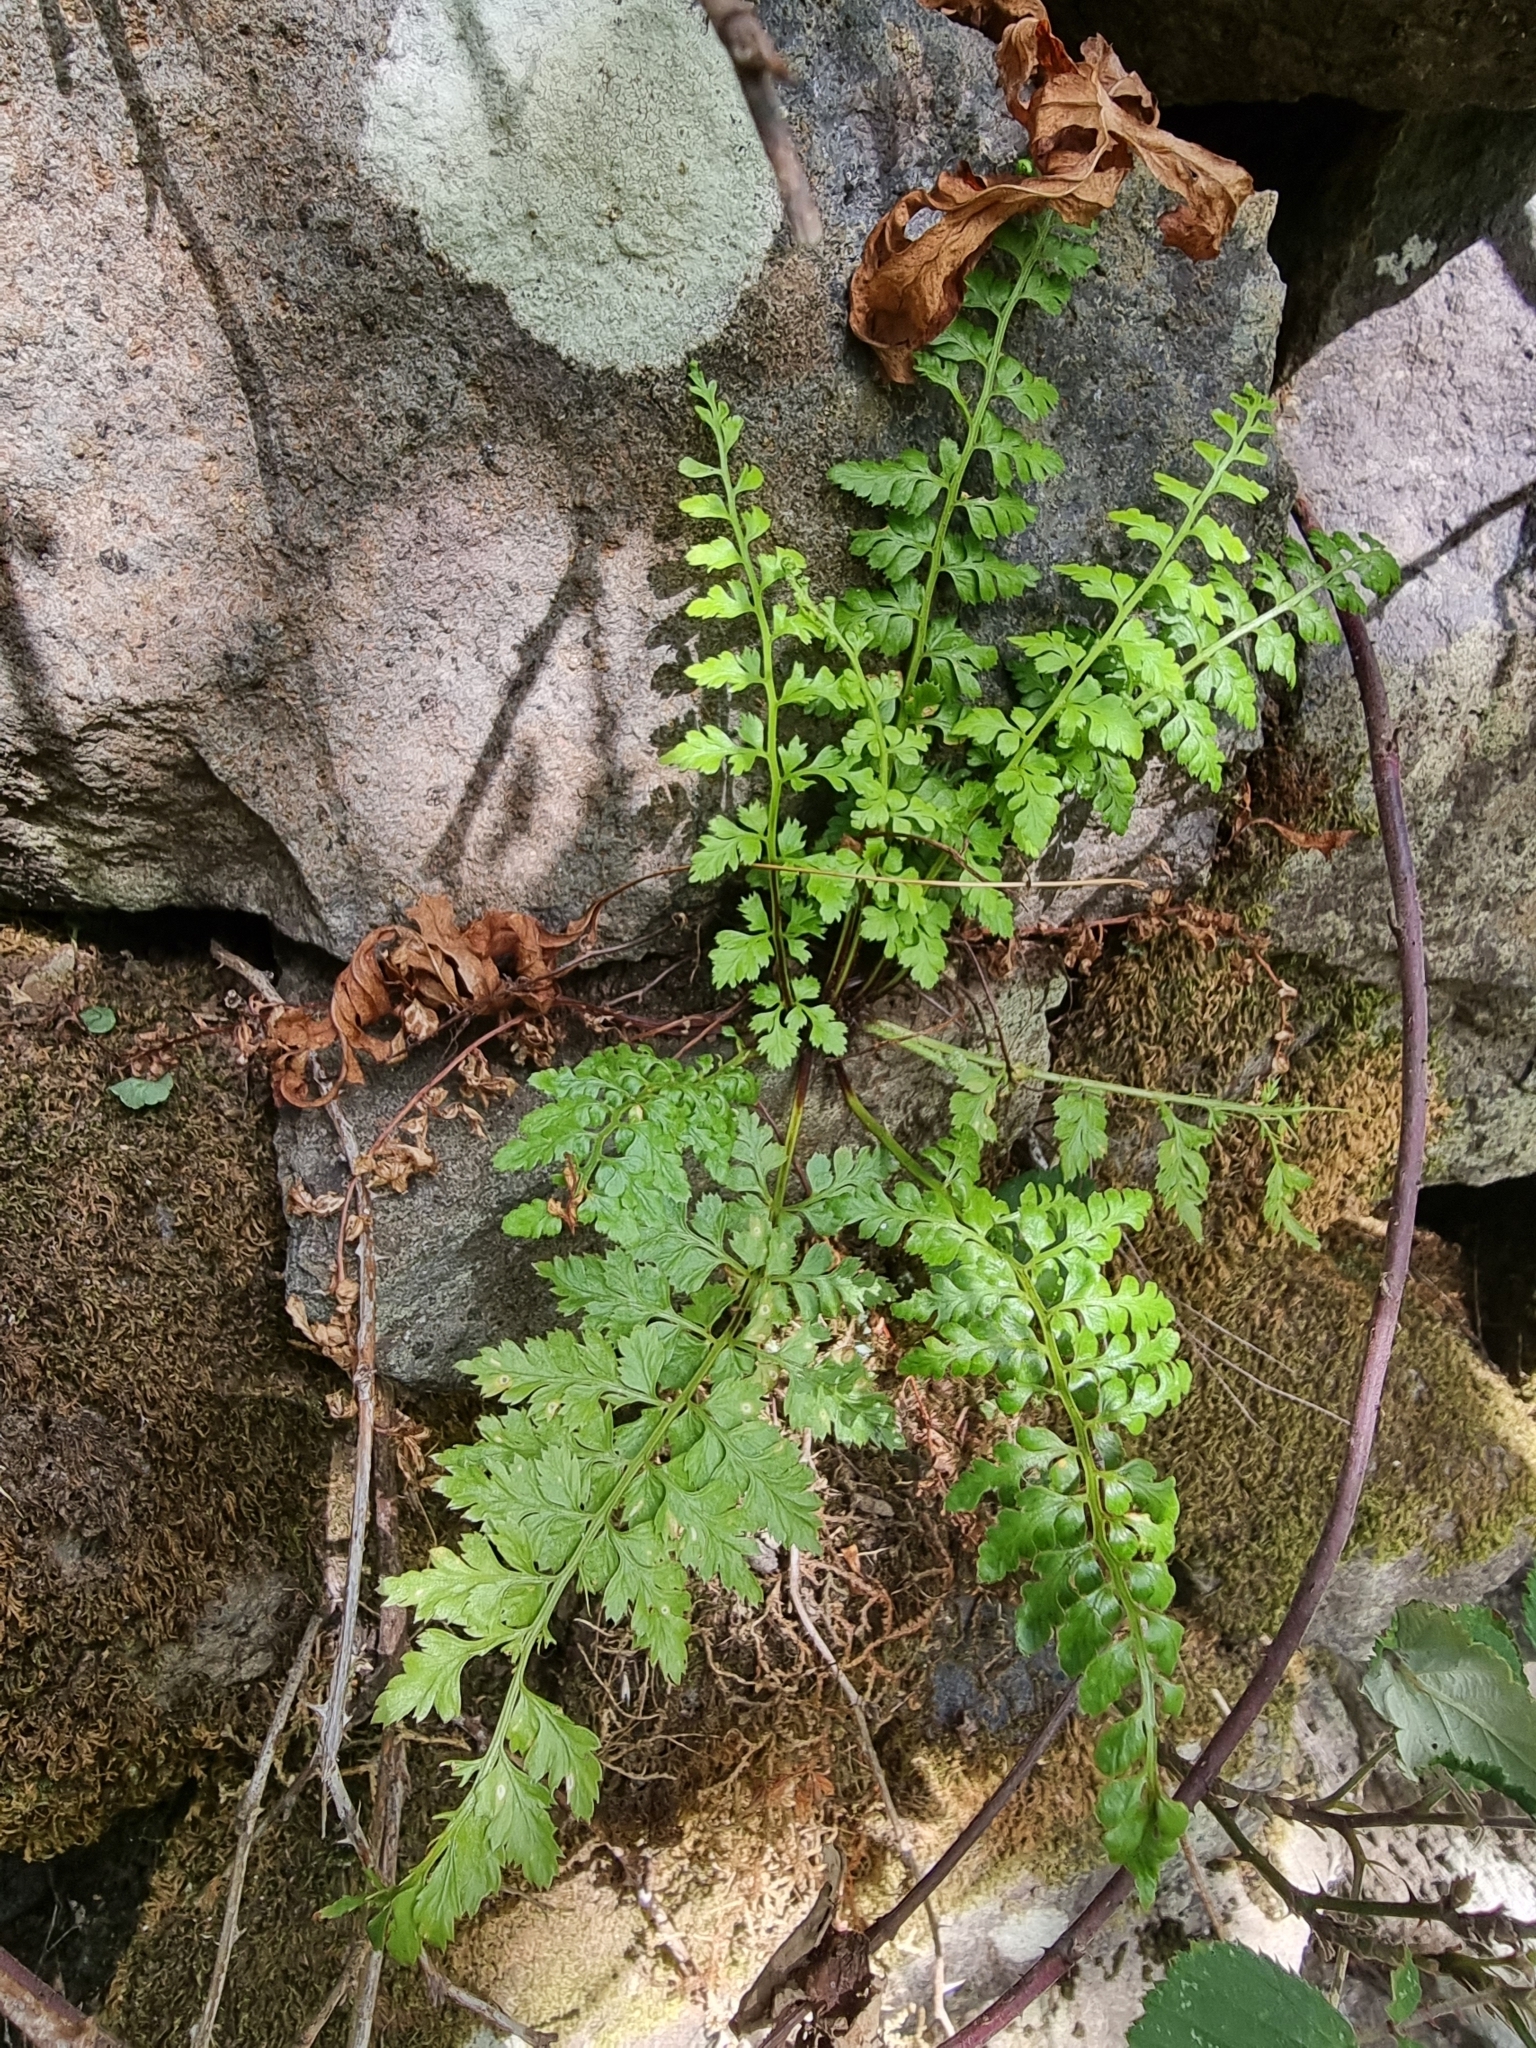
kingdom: Plantae
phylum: Tracheophyta
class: Polypodiopsida
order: Polypodiales
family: Aspleniaceae
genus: Asplenium
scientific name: Asplenium obovatum
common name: Lanceolate spleenwort
